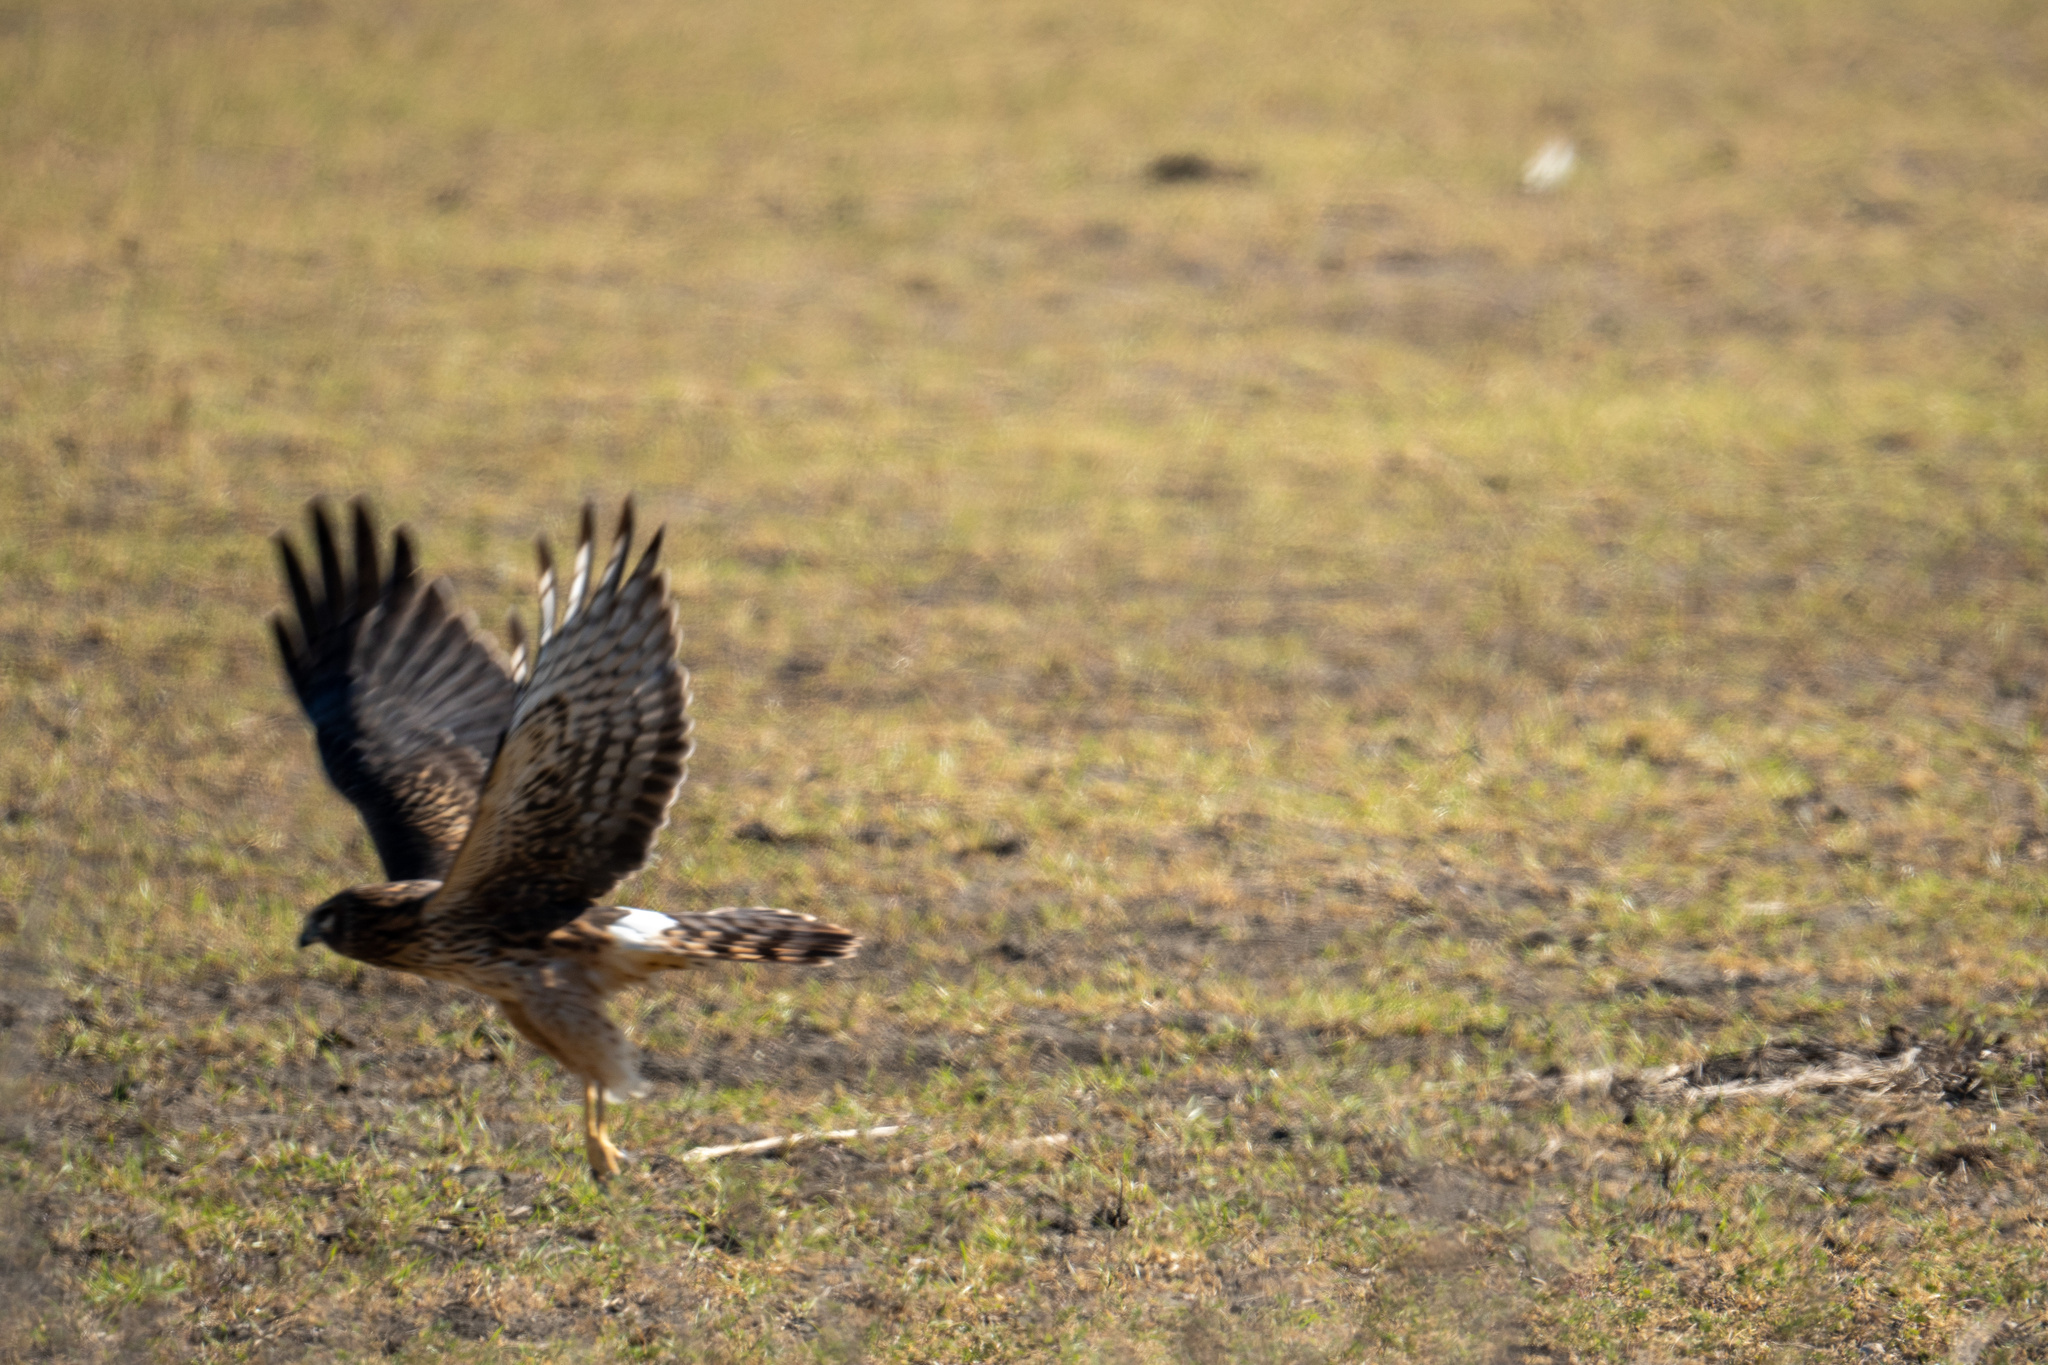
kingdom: Animalia
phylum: Chordata
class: Aves
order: Accipitriformes
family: Accipitridae
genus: Circus
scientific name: Circus cyaneus
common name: Hen harrier
